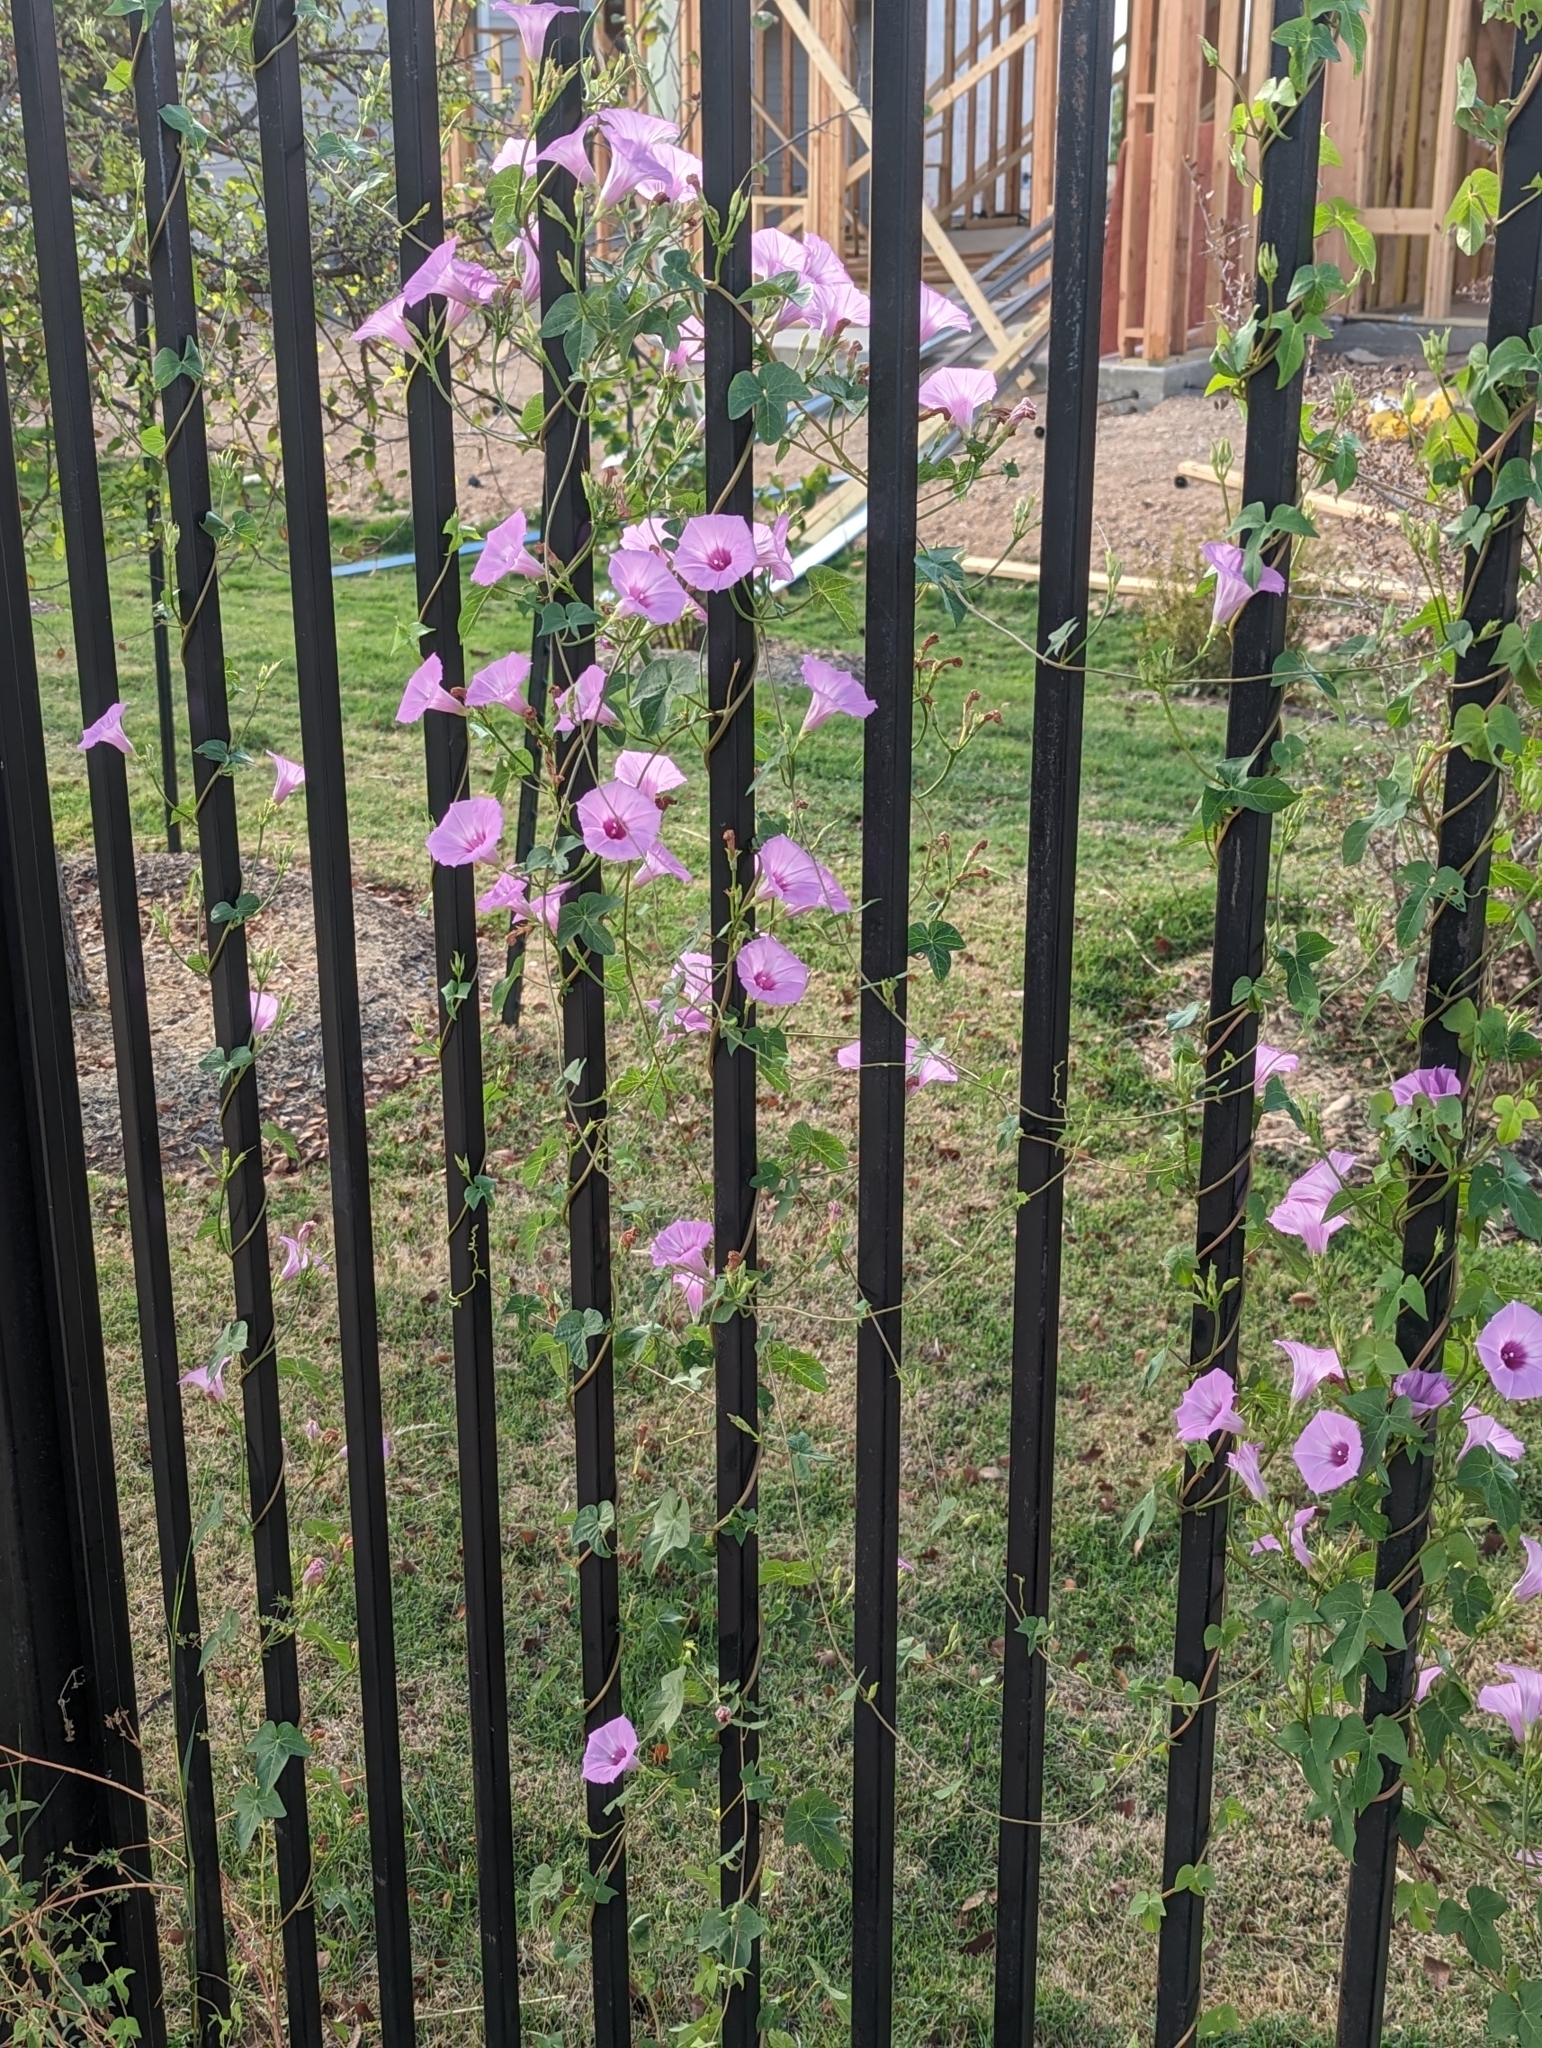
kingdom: Plantae
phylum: Tracheophyta
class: Magnoliopsida
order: Solanales
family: Convolvulaceae
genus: Ipomoea
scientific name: Ipomoea cordatotriloba
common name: Cotton morning glory
